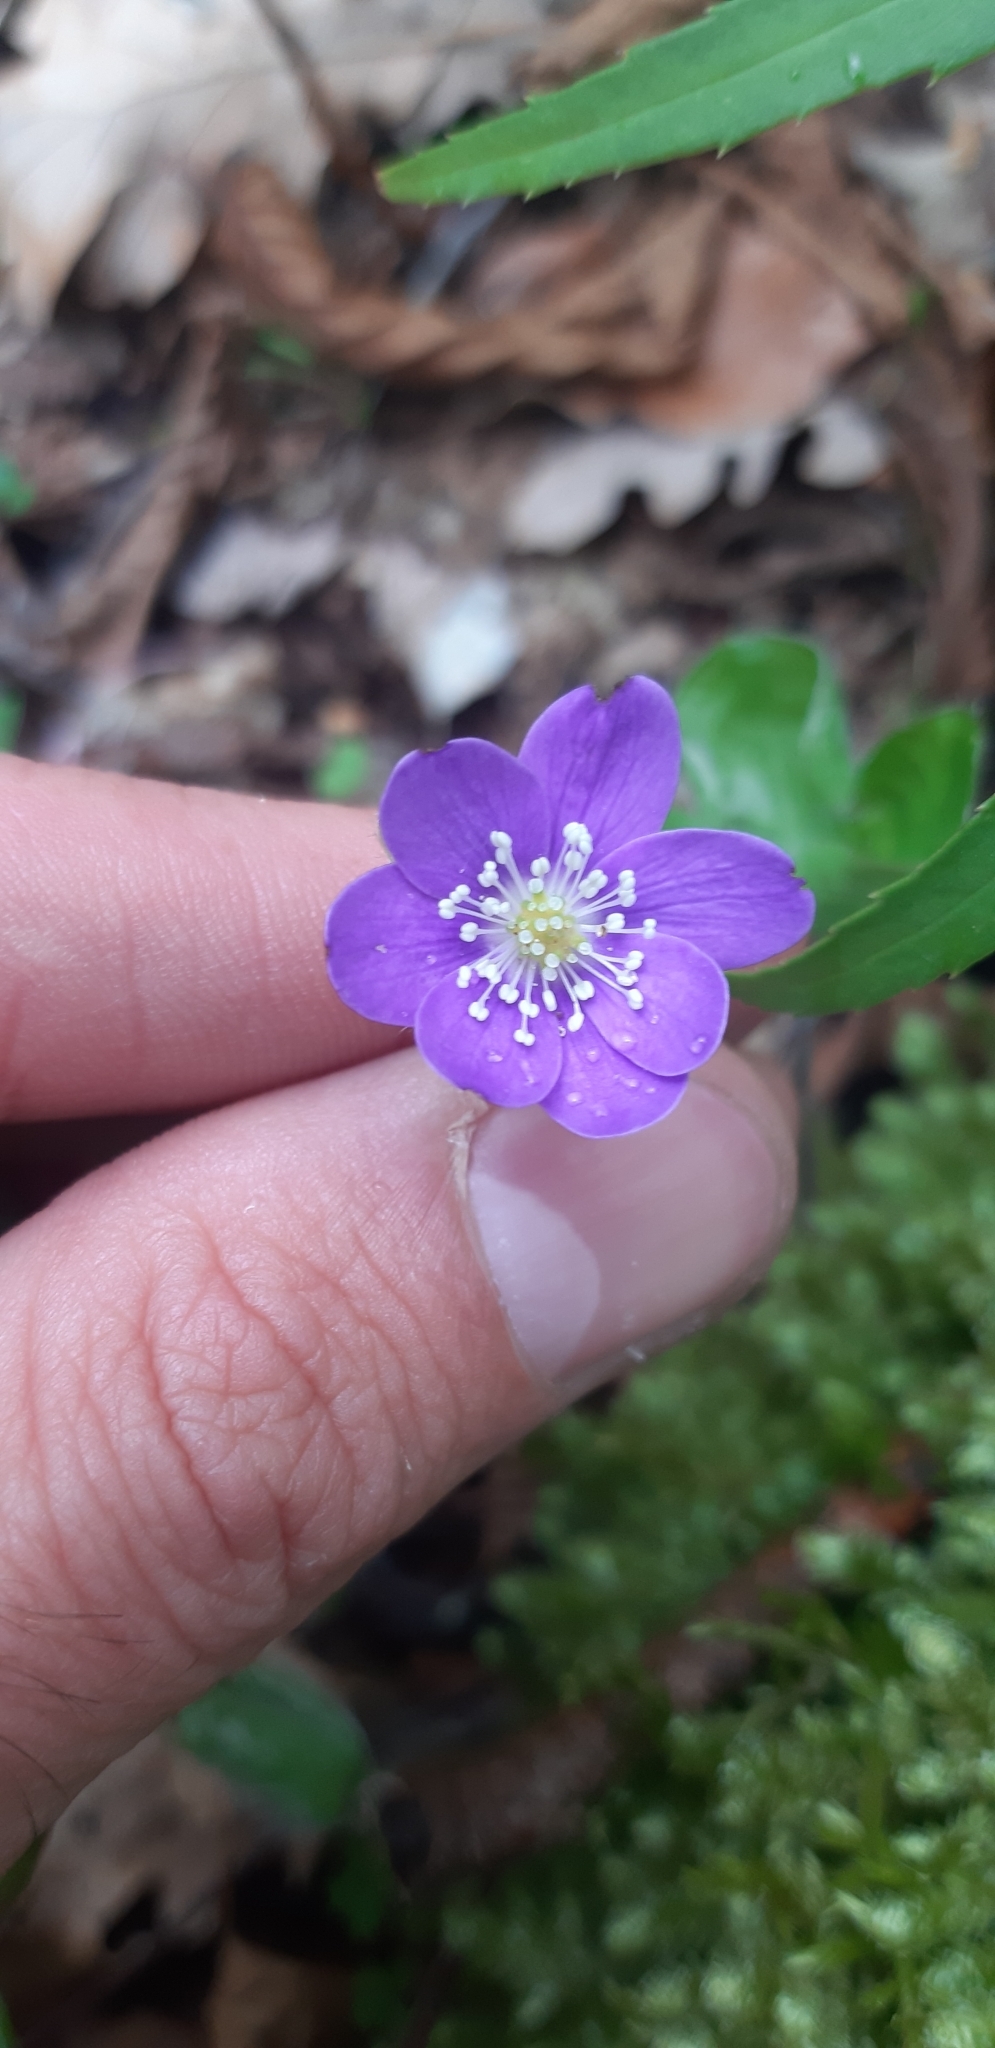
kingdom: Plantae
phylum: Tracheophyta
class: Magnoliopsida
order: Ranunculales
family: Ranunculaceae
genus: Hepatica
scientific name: Hepatica nobilis
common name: Liverleaf
